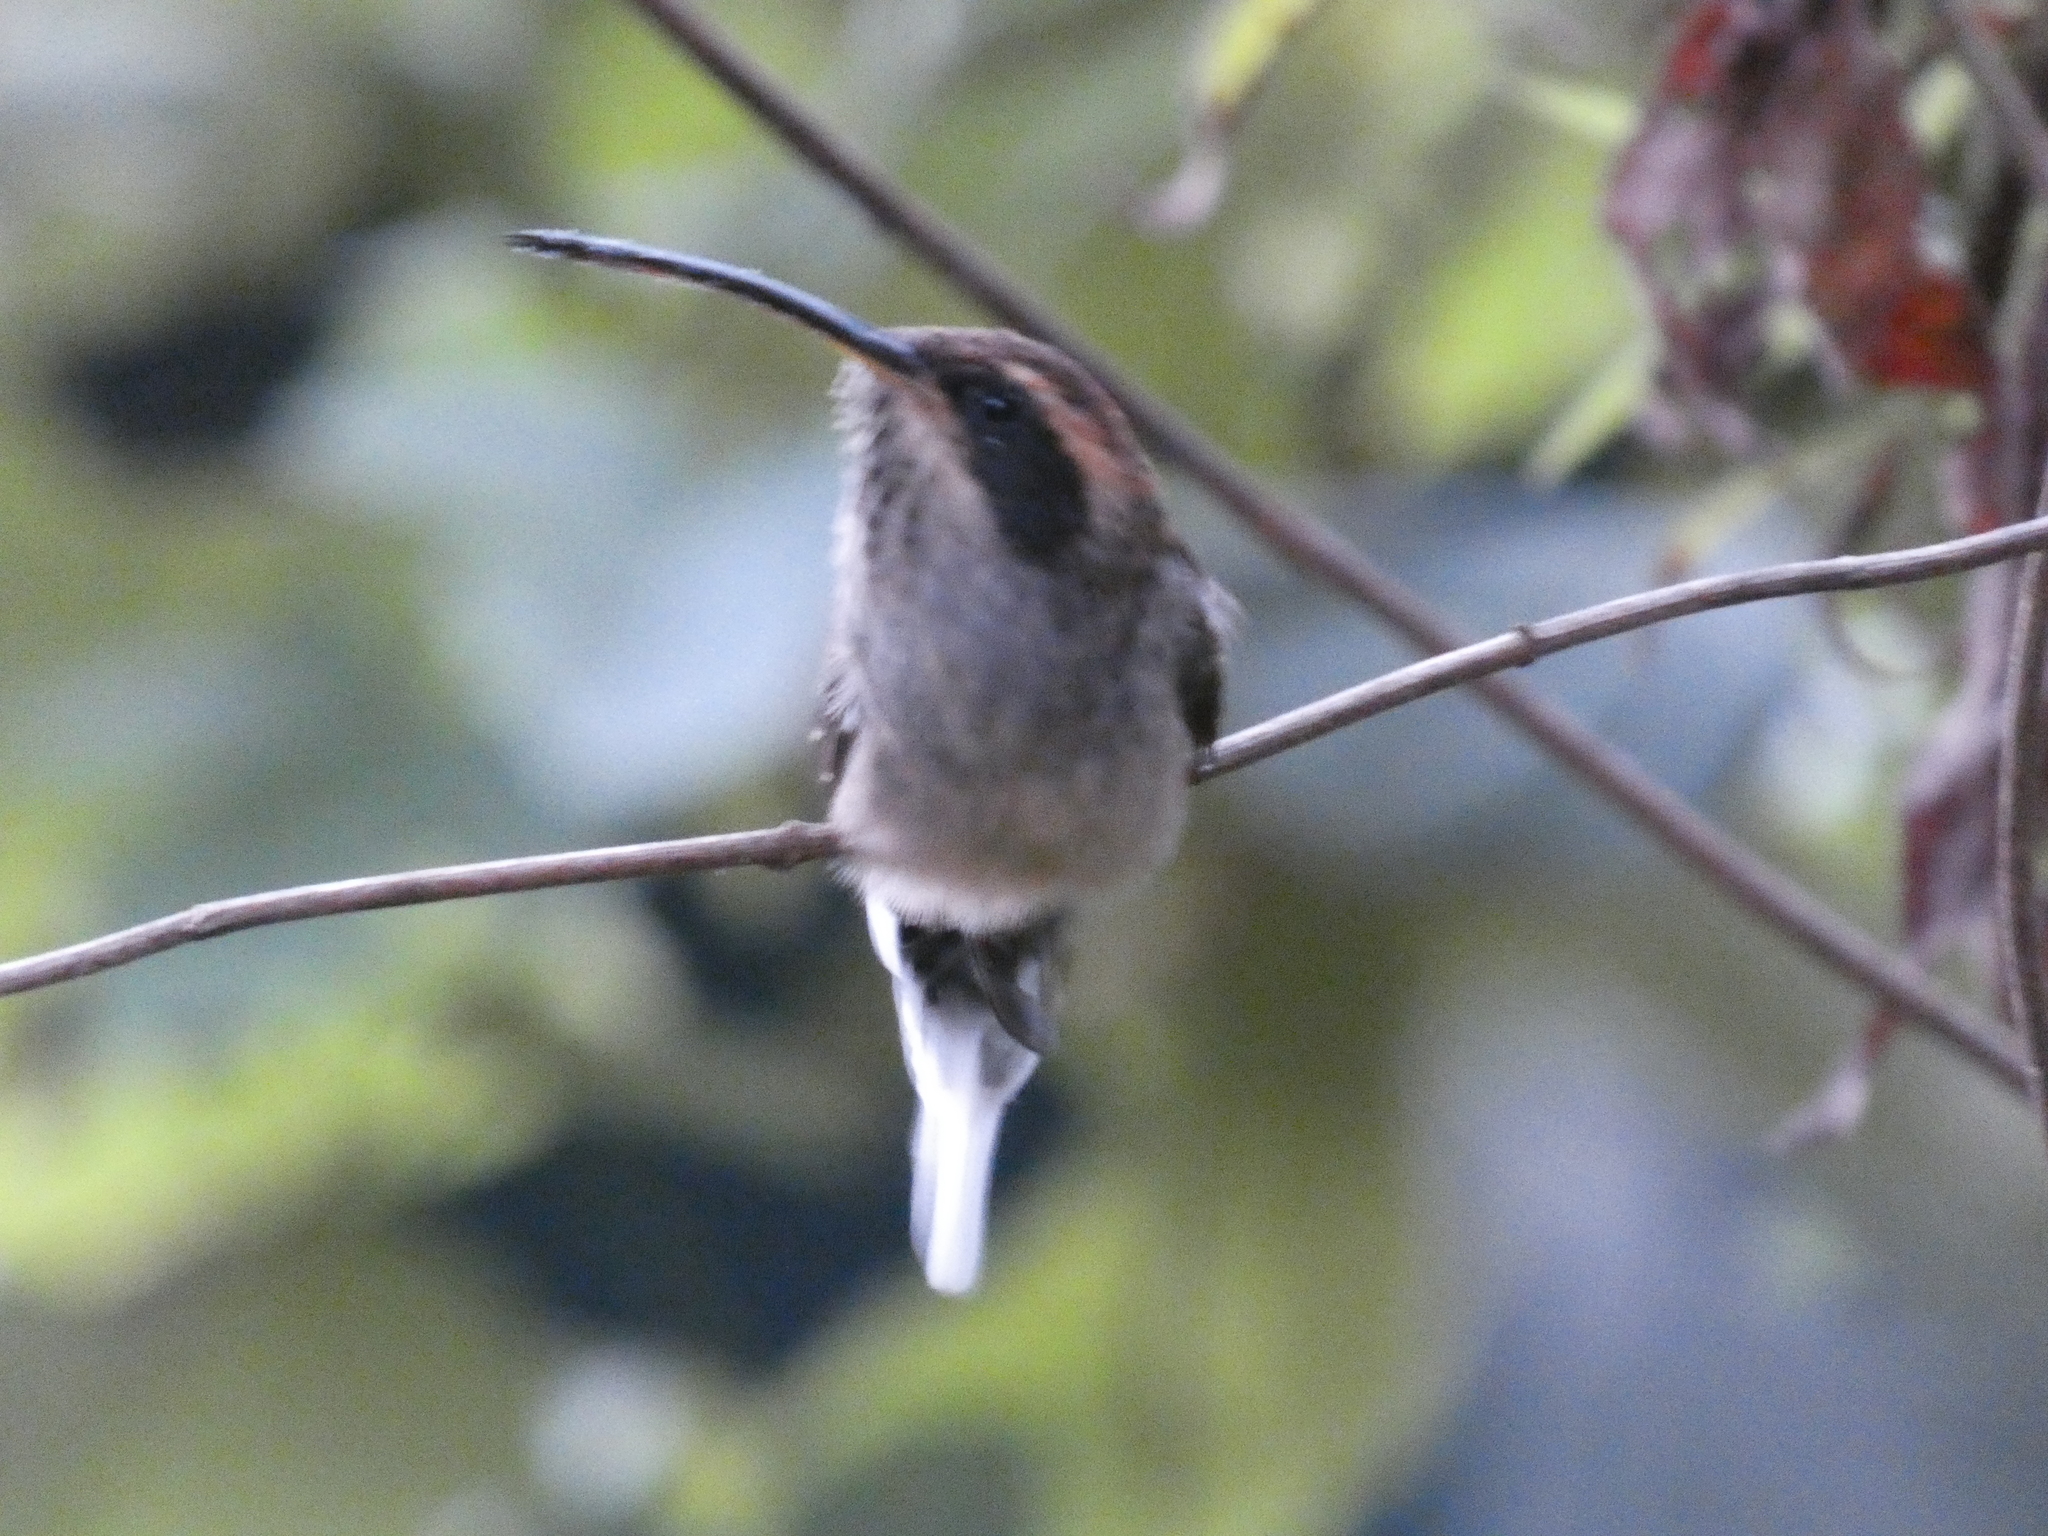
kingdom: Animalia
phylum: Chordata
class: Aves
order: Apodiformes
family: Trochilidae
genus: Phaethornis
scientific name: Phaethornis eurynome
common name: Scale-throated hermit
